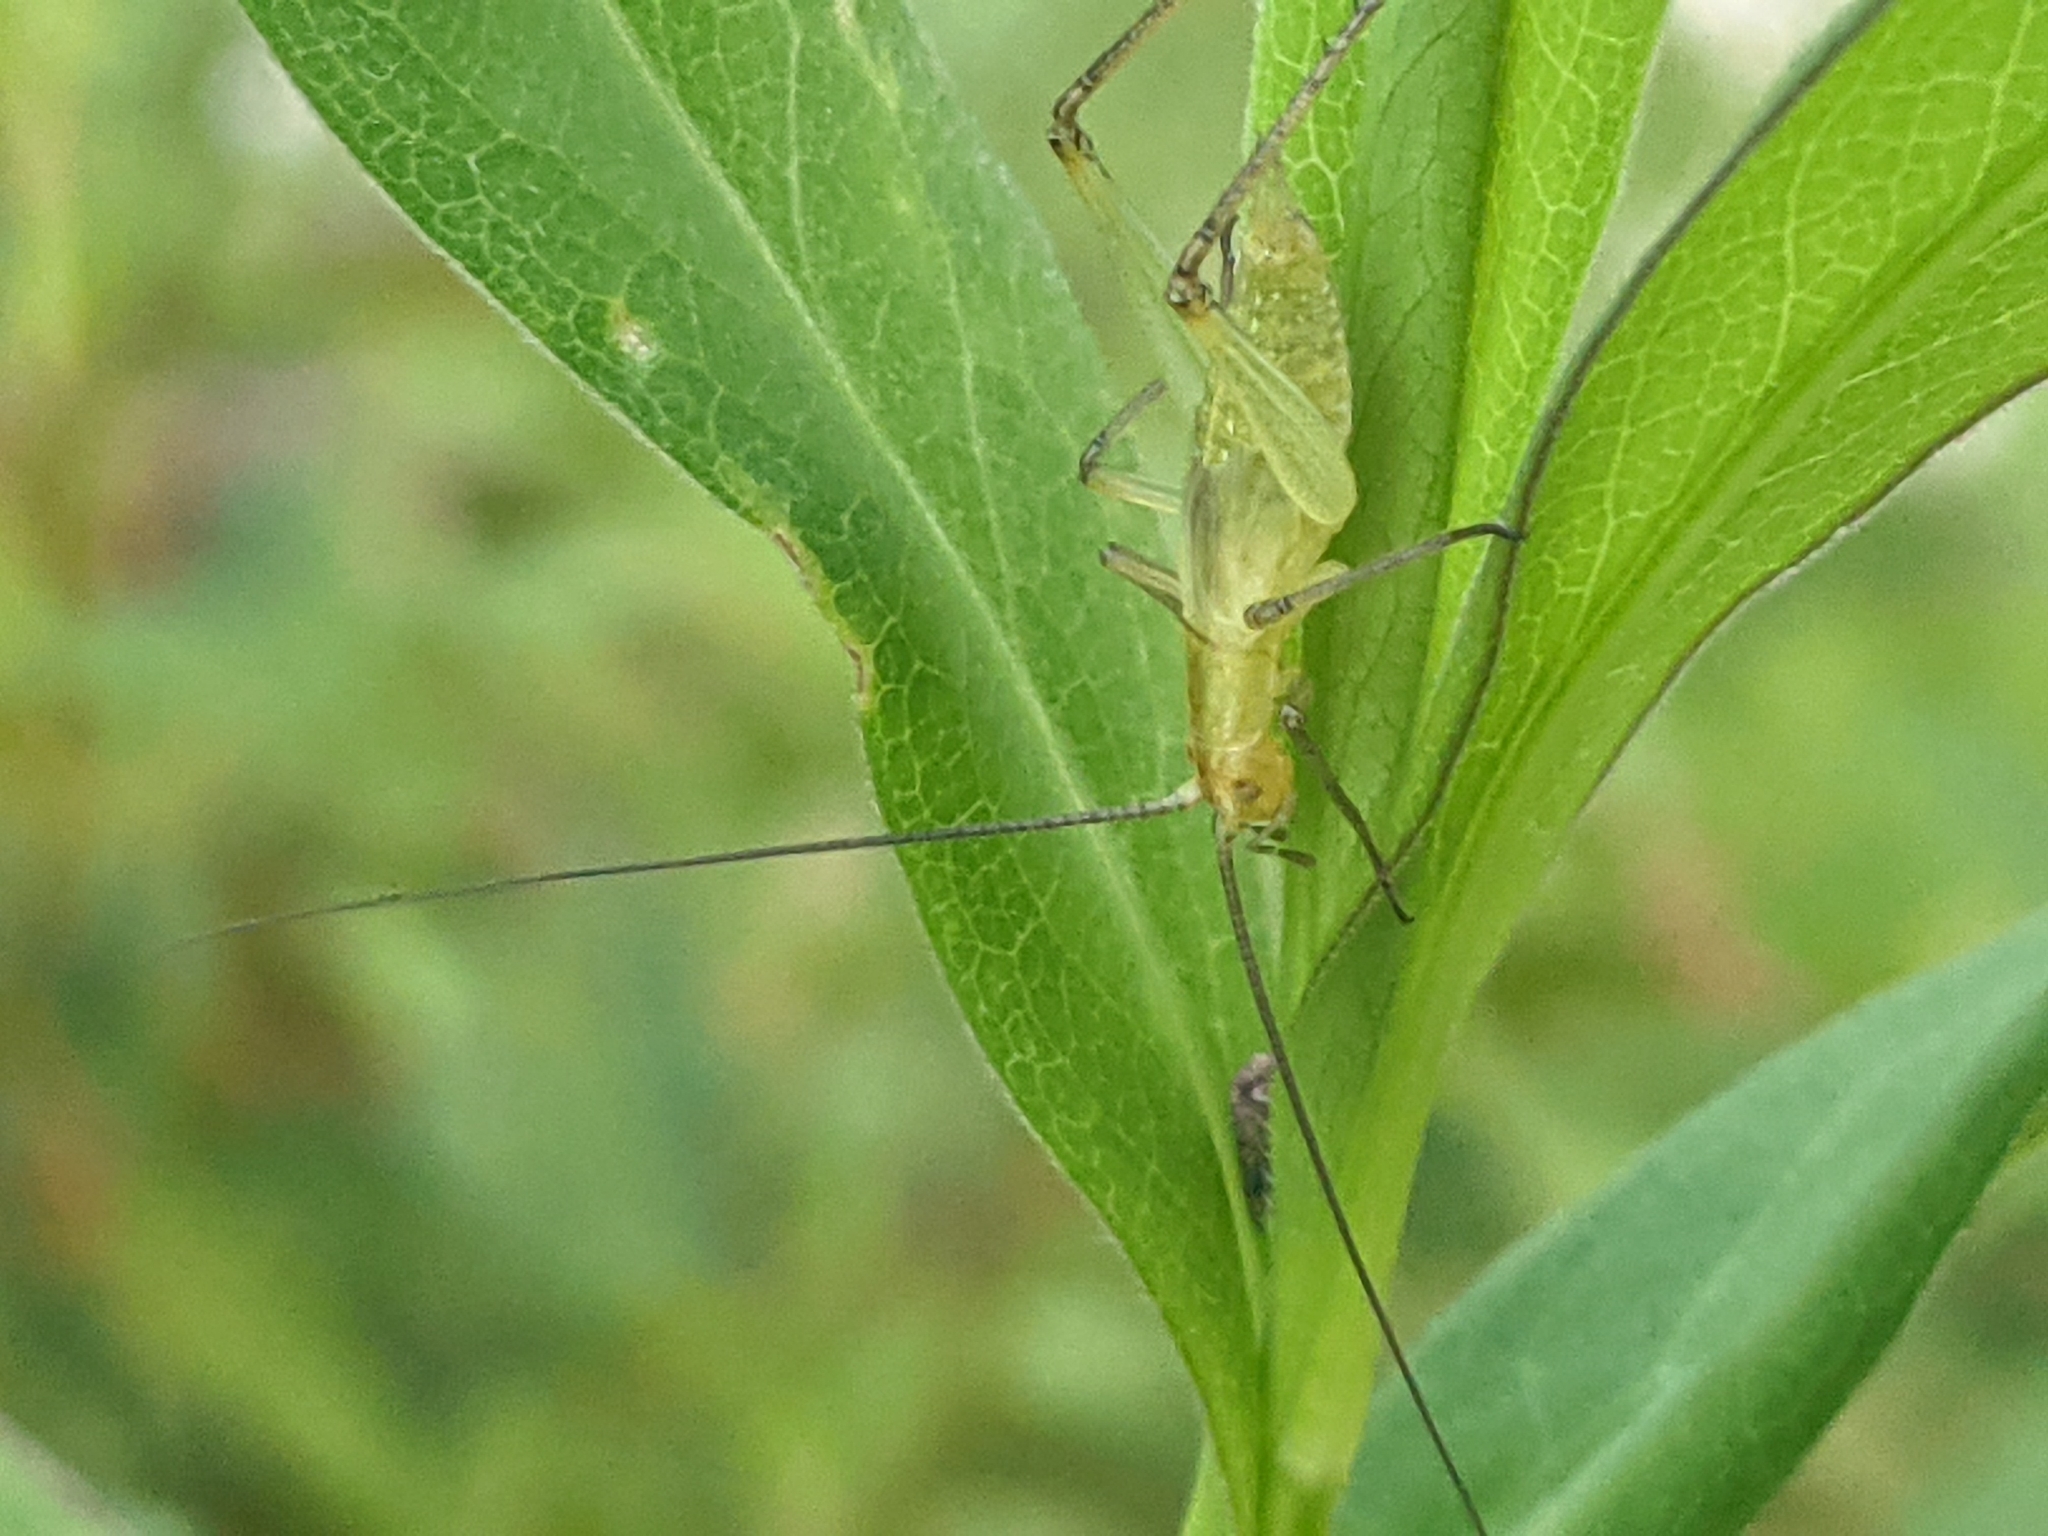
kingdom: Animalia
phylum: Arthropoda
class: Insecta
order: Orthoptera
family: Gryllidae
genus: Oecanthus
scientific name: Oecanthus nigricornis
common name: Black-horned tree cricket
